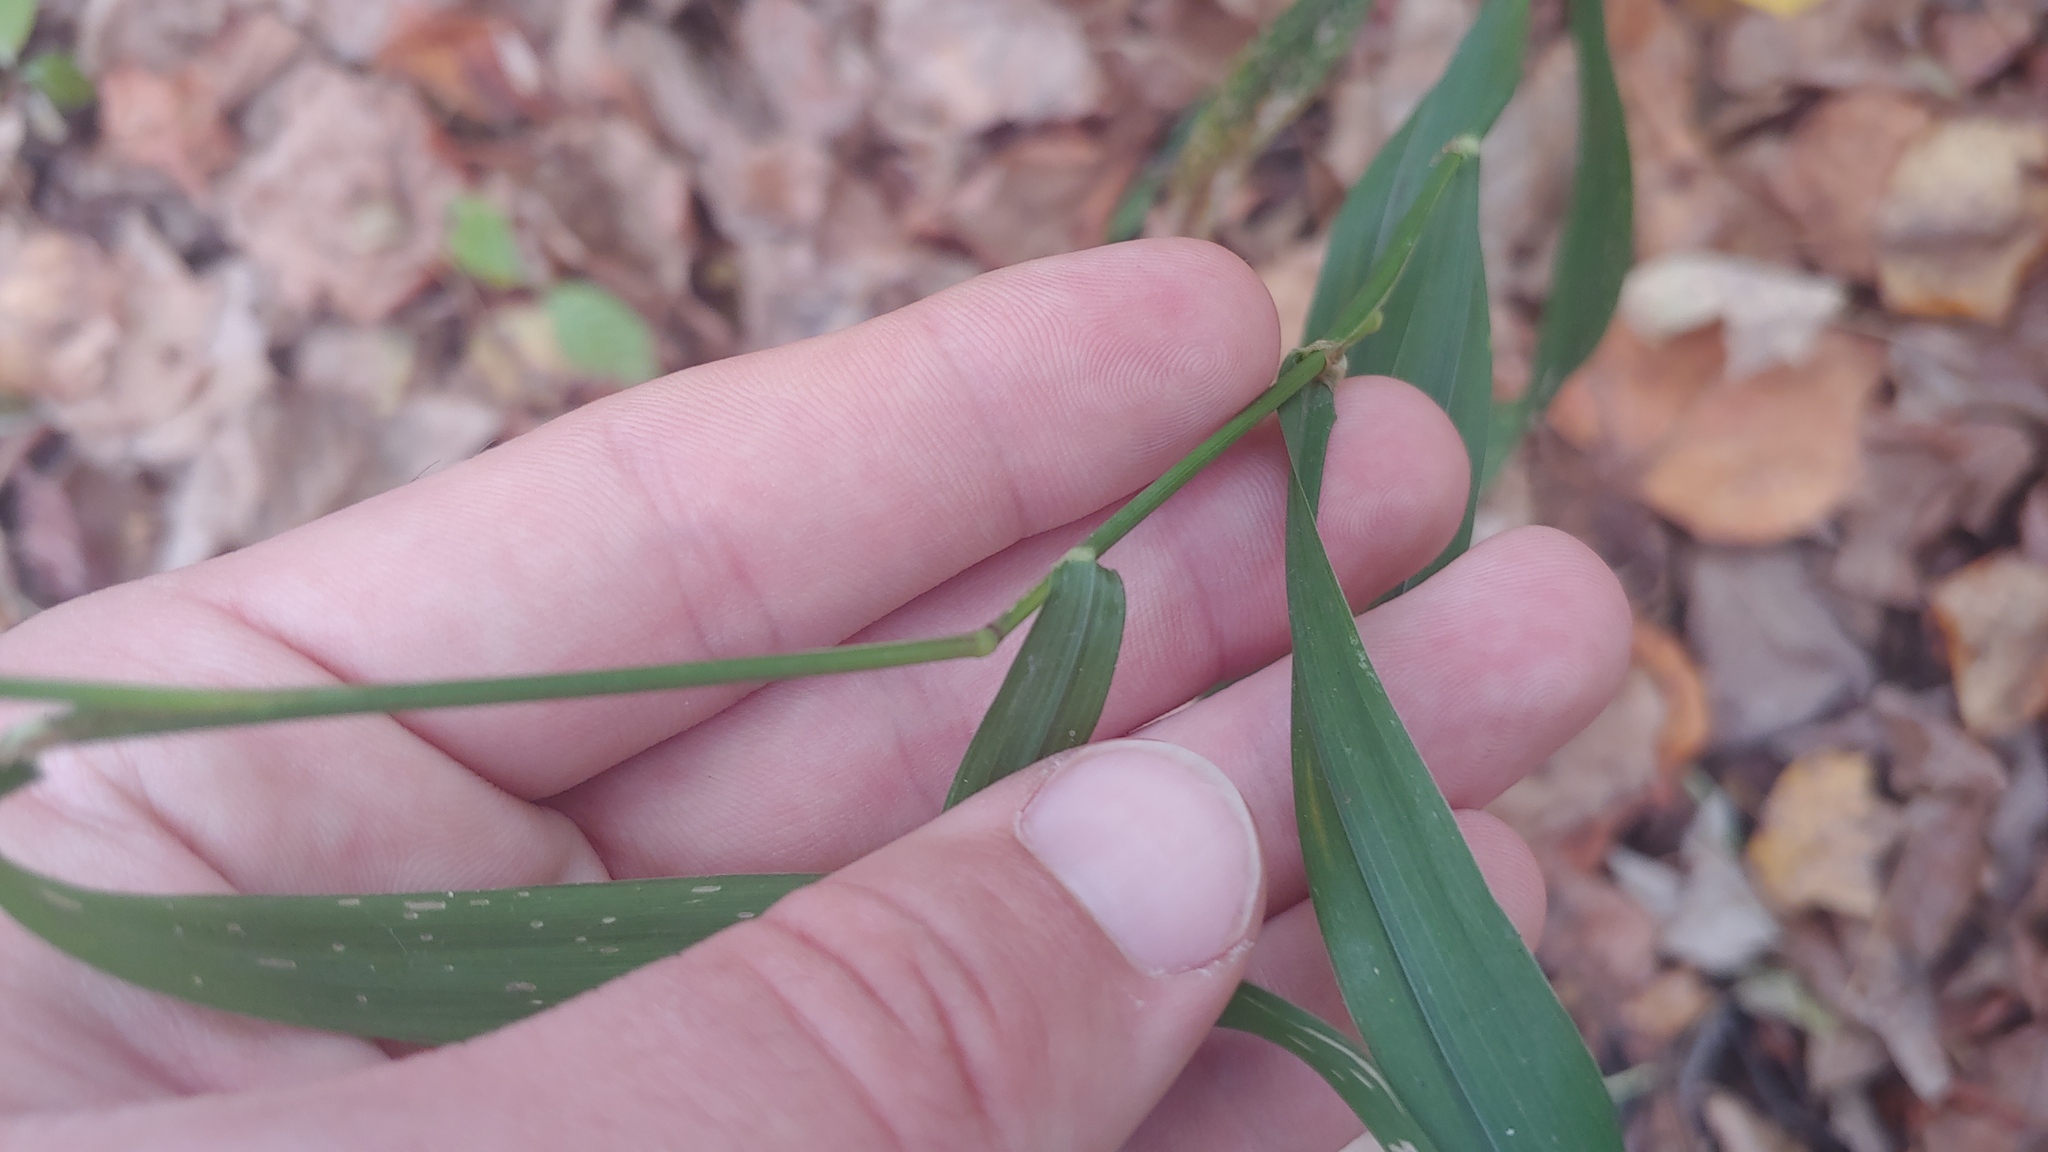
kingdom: Plantae
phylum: Tracheophyta
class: Liliopsida
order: Poales
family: Poaceae
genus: Cinna
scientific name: Cinna arundinacea
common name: Stout woodreed
